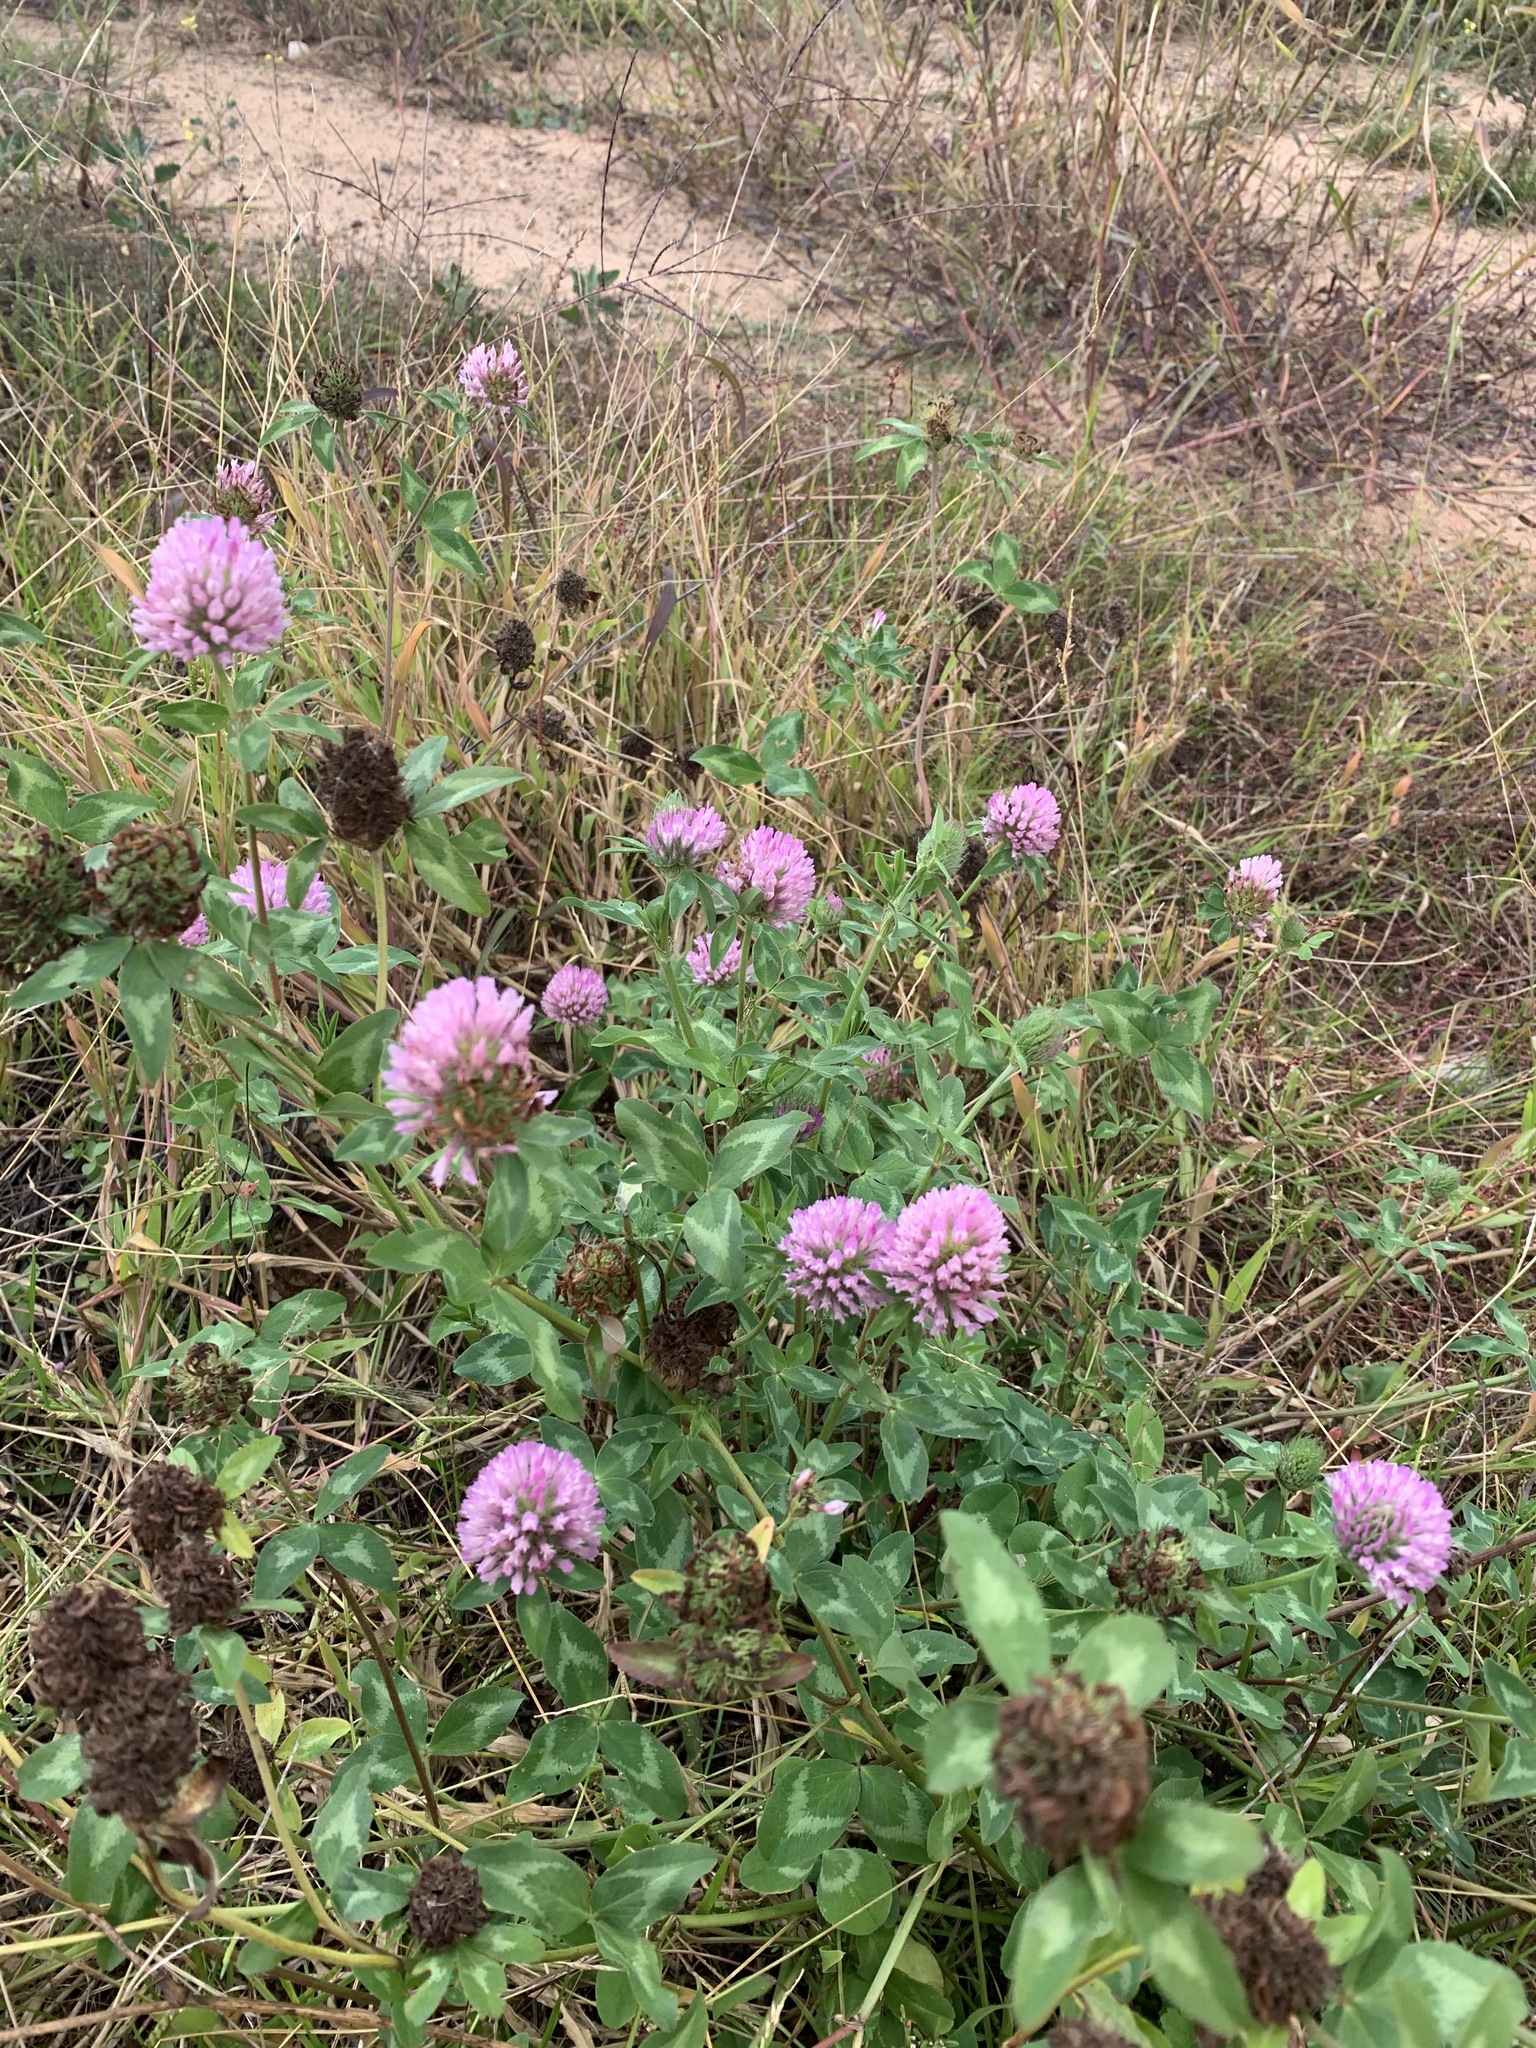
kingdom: Plantae
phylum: Tracheophyta
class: Magnoliopsida
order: Fabales
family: Fabaceae
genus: Trifolium
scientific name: Trifolium pratense
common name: Red clover
